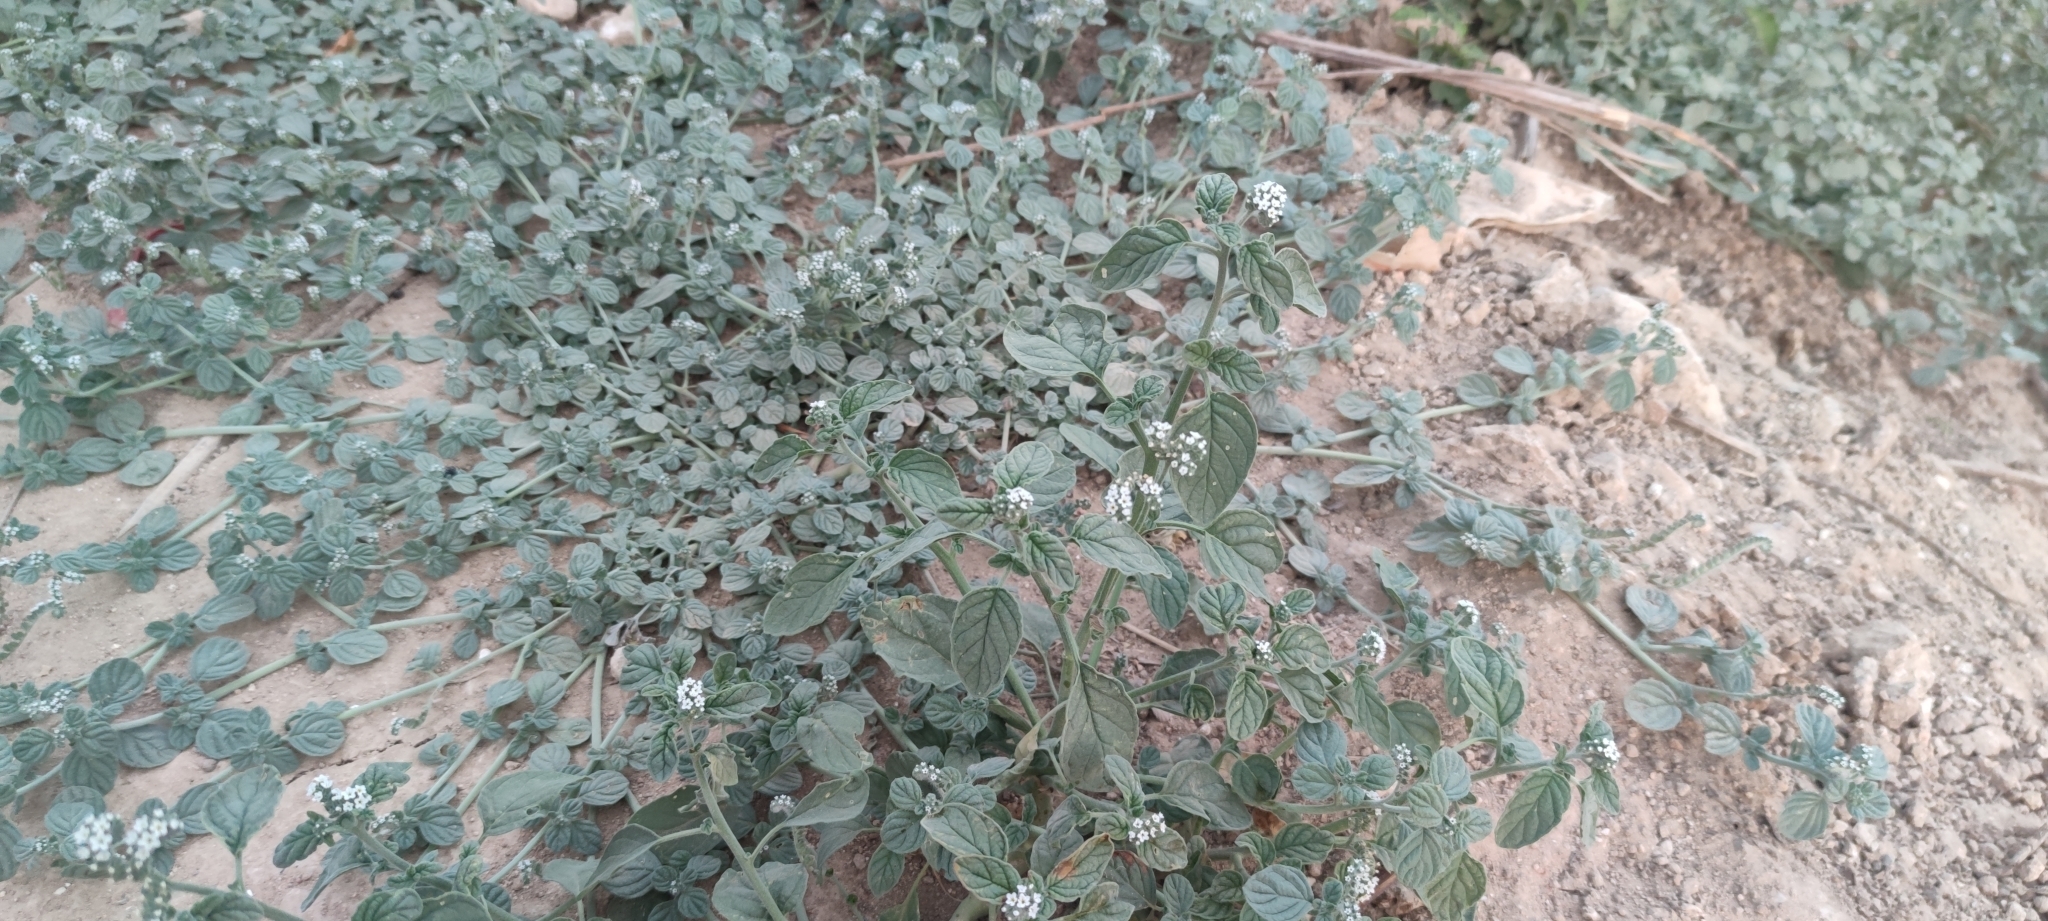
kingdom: Plantae
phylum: Tracheophyta
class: Magnoliopsida
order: Boraginales
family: Heliotropiaceae
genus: Heliotropium
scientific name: Heliotropium europaeum
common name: European heliotrope
